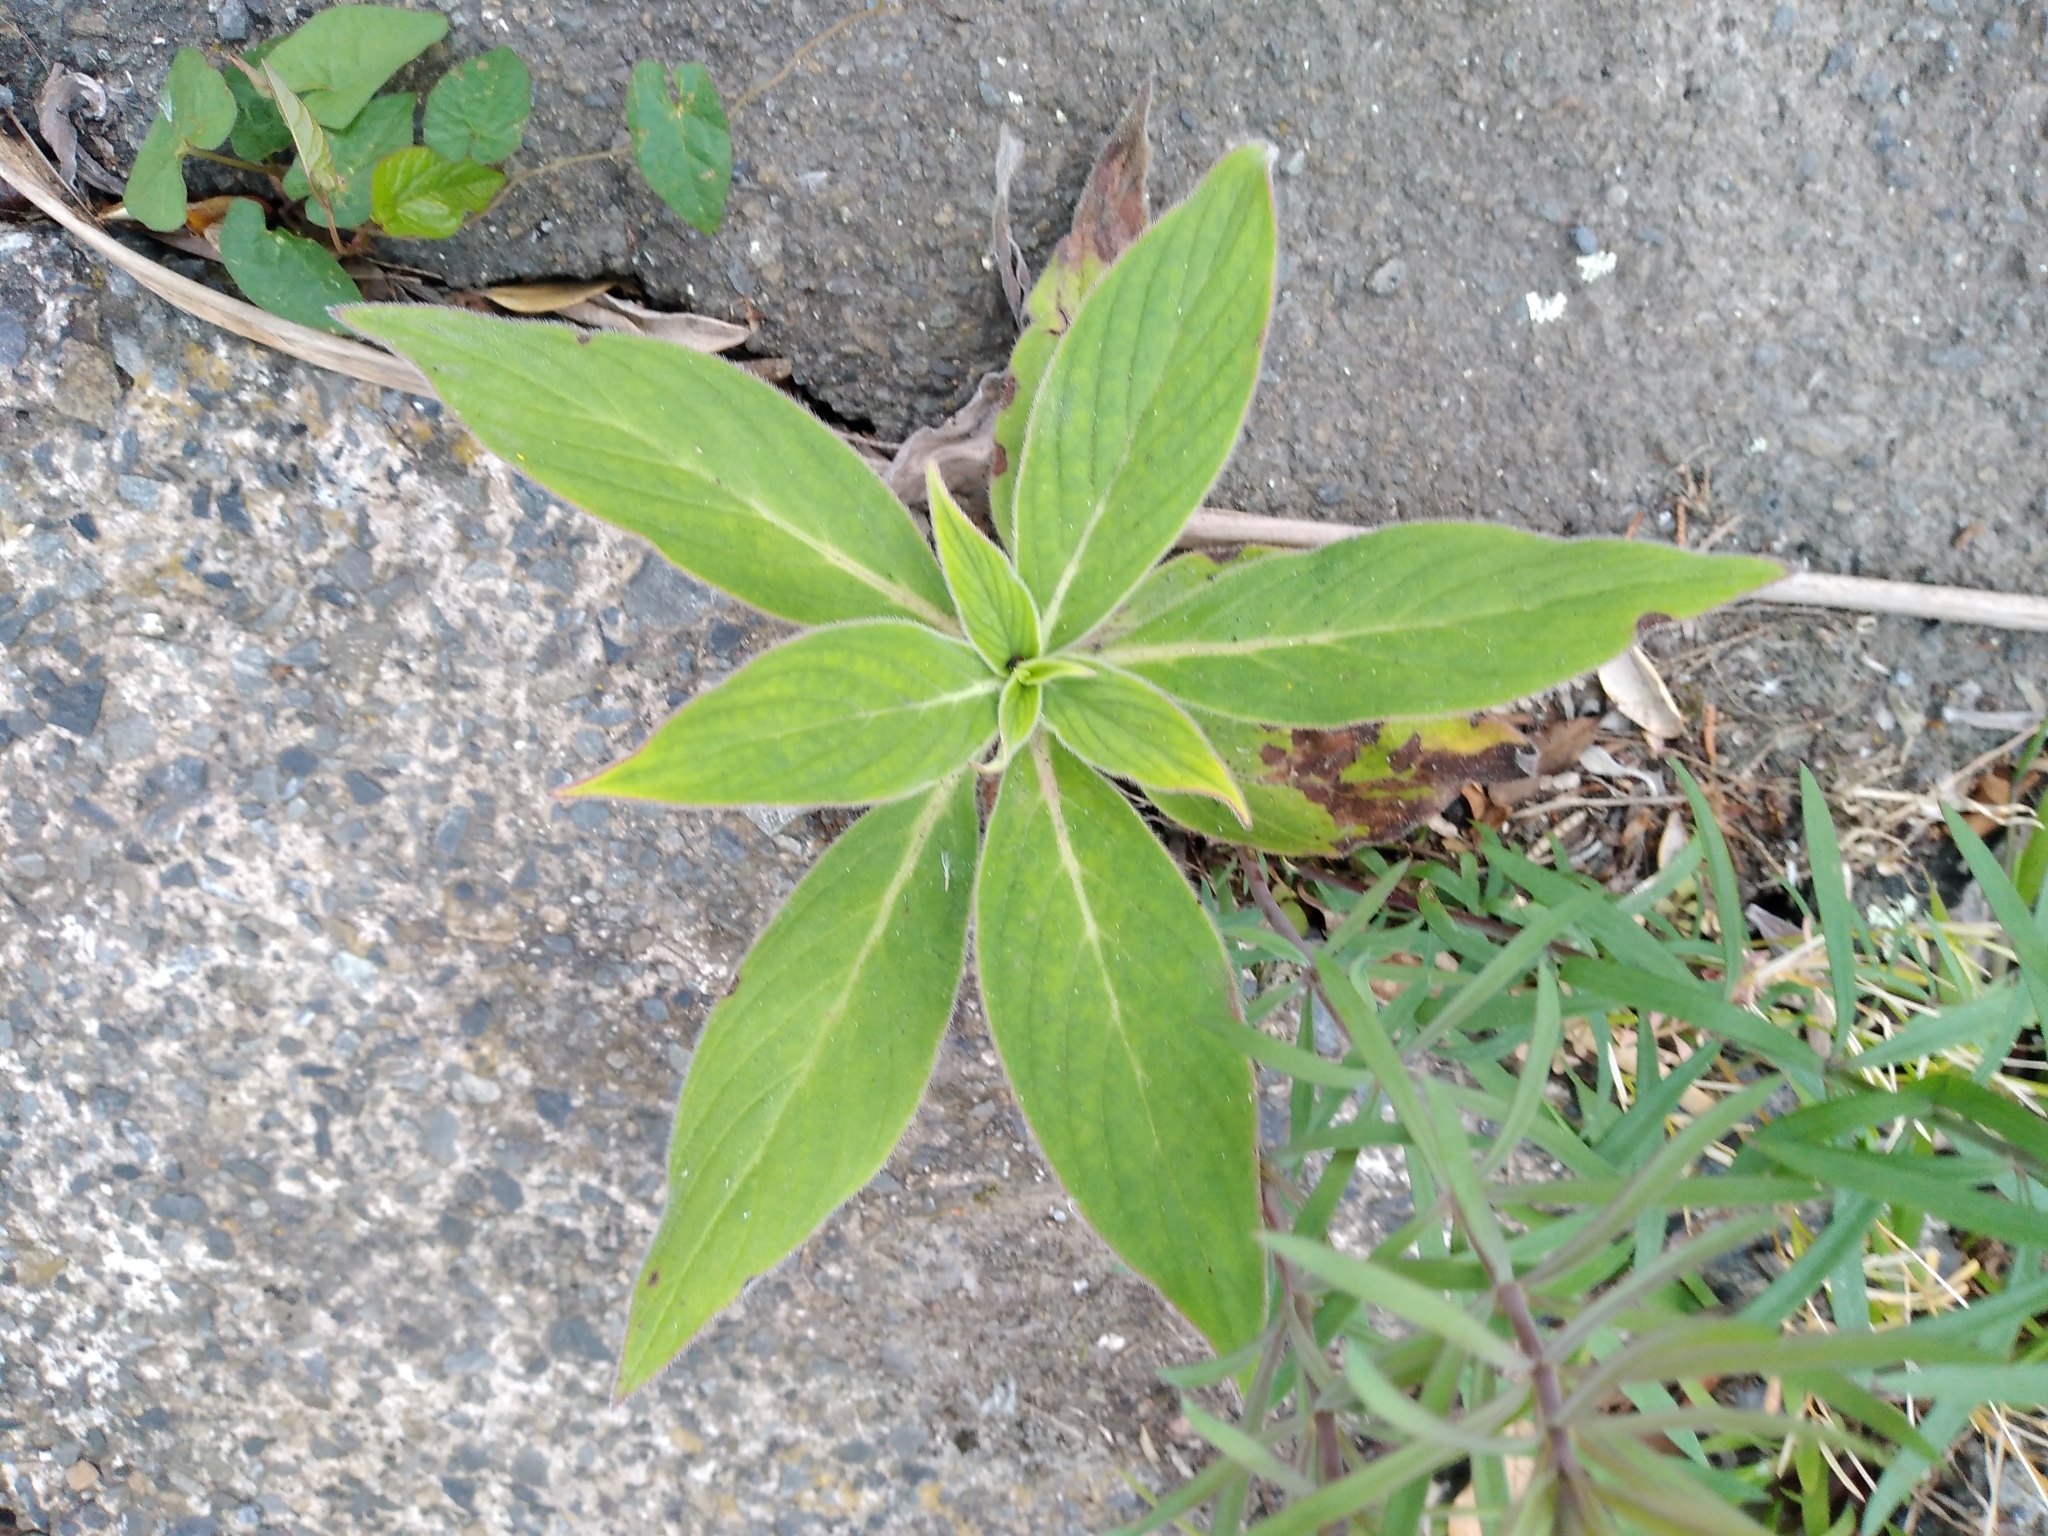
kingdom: Plantae
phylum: Tracheophyta
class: Magnoliopsida
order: Boraginales
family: Boraginaceae
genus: Echium
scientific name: Echium candicans
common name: Pride of madeira
